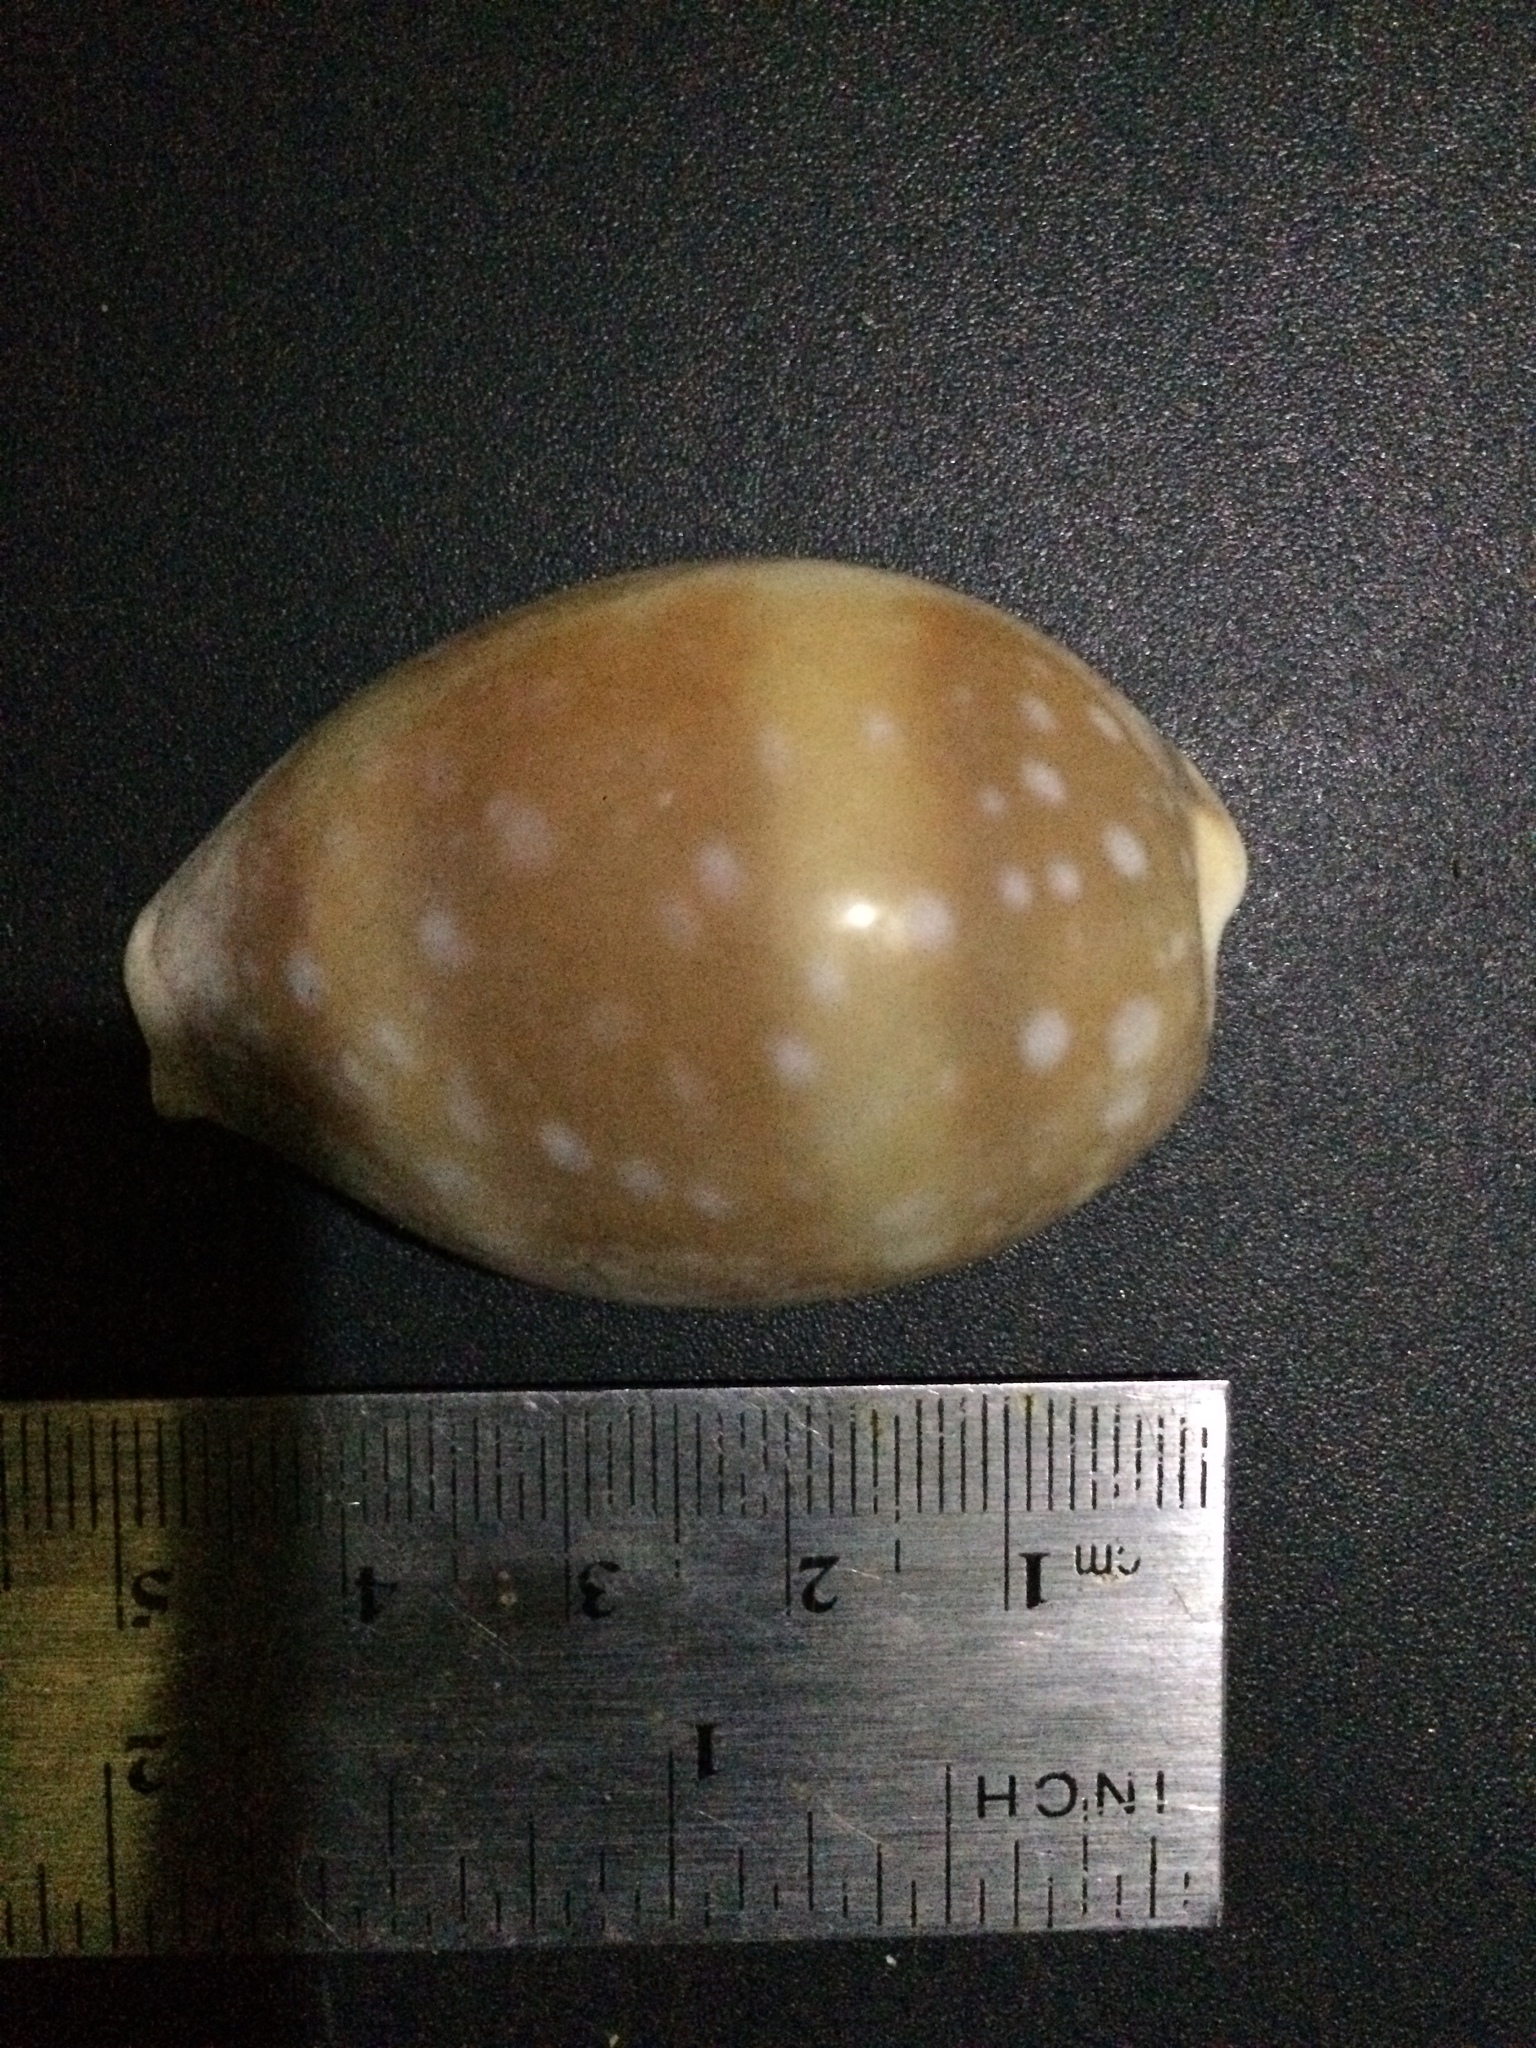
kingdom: Animalia
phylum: Mollusca
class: Gastropoda
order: Littorinimorpha
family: Cypraeidae
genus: Lyncina
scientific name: Lyncina vitellus
